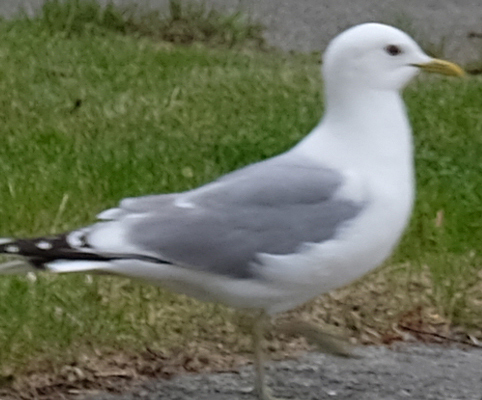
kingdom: Animalia
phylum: Chordata
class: Aves
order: Charadriiformes
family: Laridae
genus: Larus
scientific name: Larus brachyrhynchus
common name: Short-billed gull
